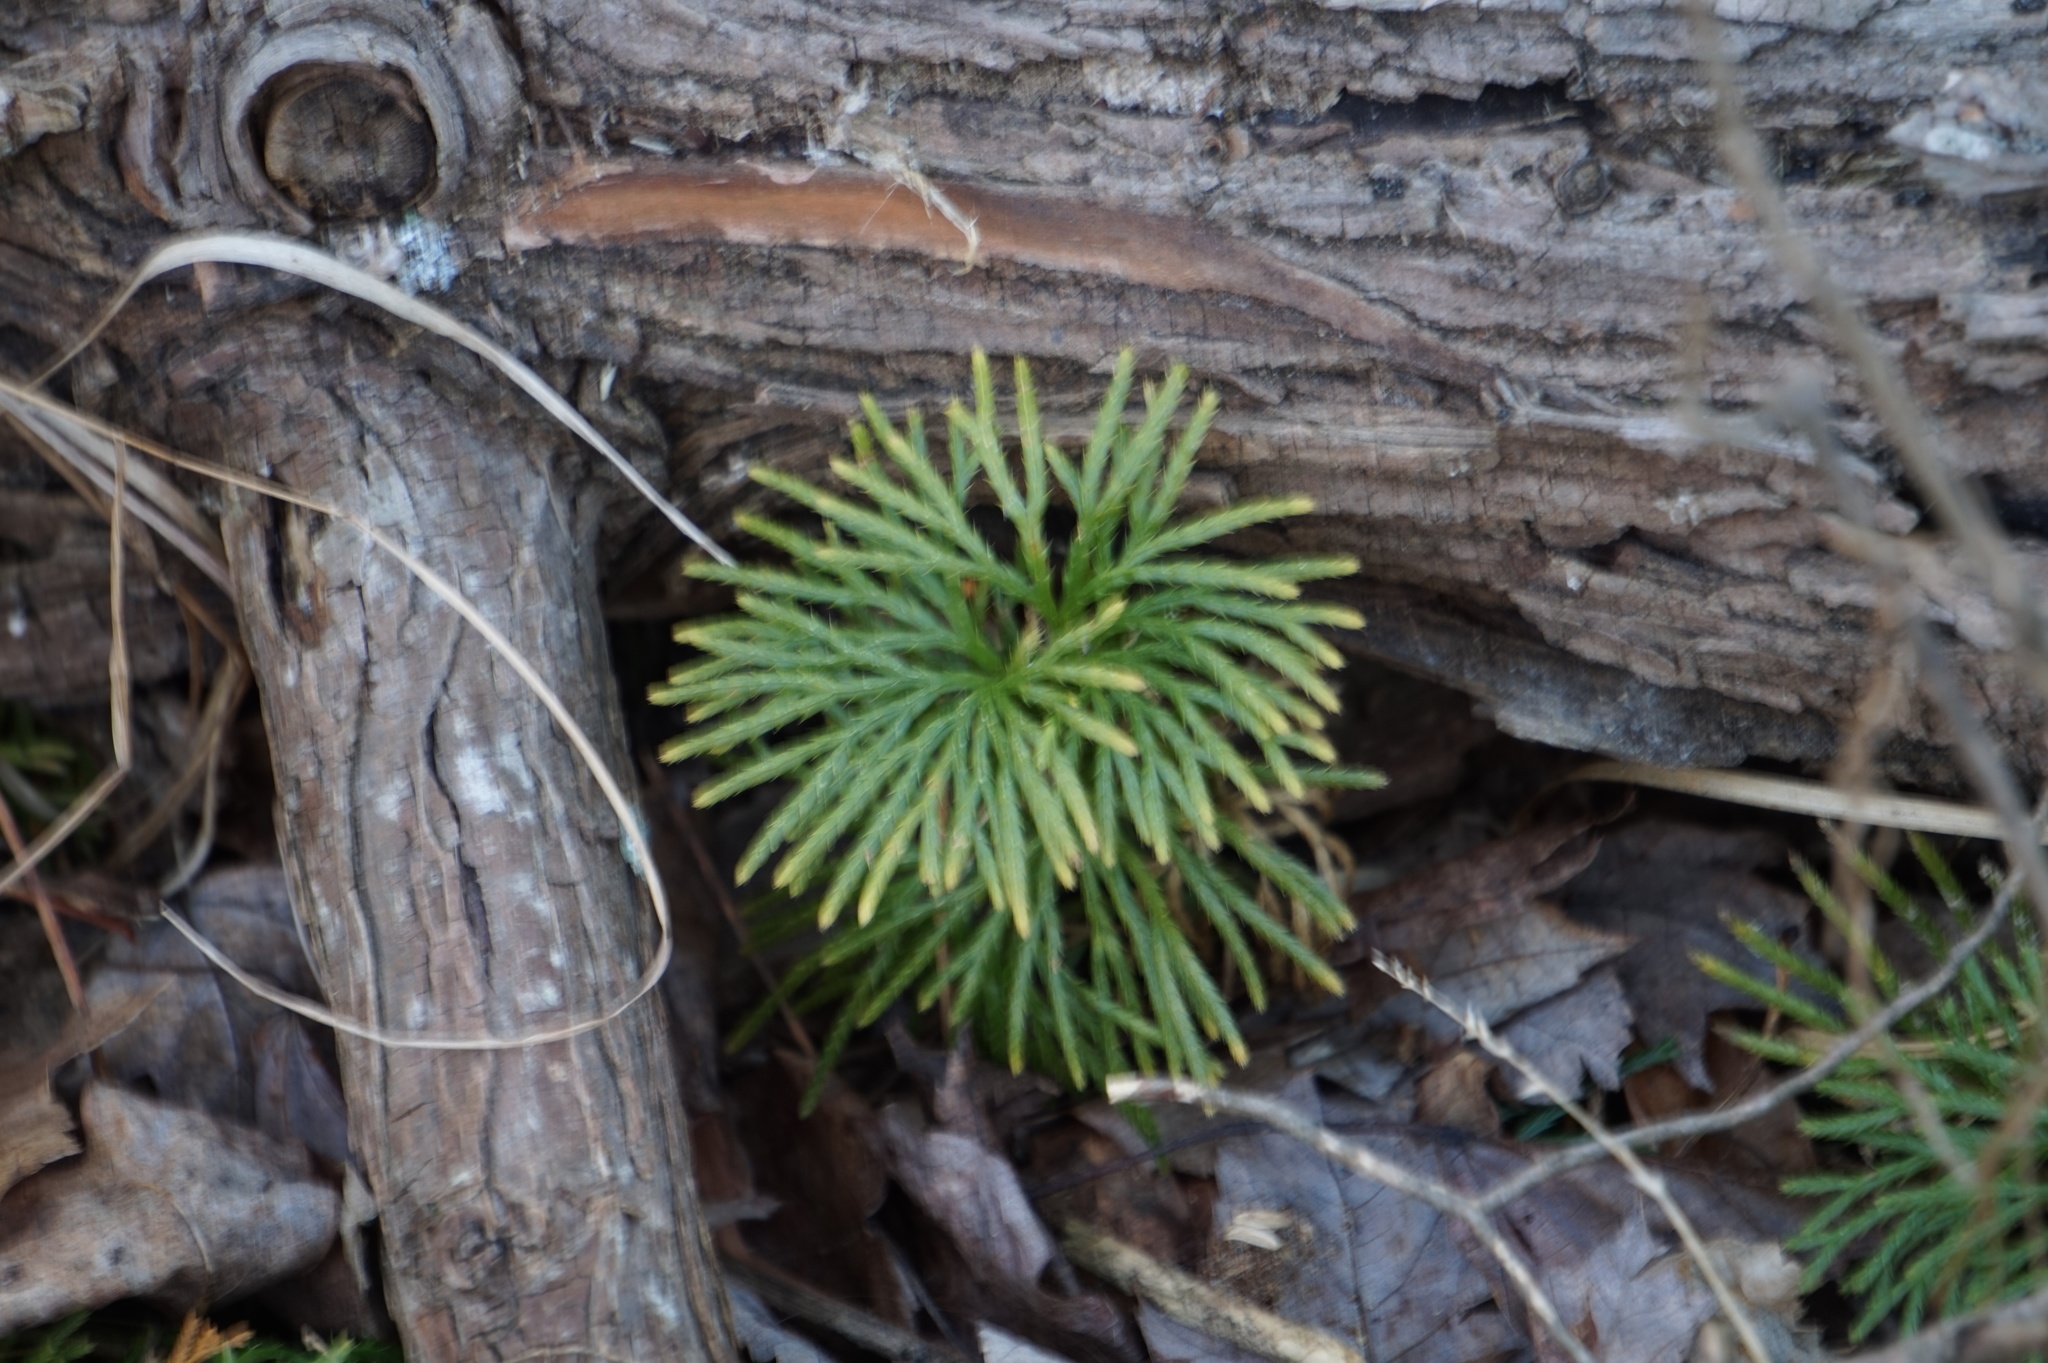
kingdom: Plantae
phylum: Tracheophyta
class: Lycopodiopsida
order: Lycopodiales
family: Lycopodiaceae
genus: Diphasiastrum
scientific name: Diphasiastrum digitatum
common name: Southern running-pine
